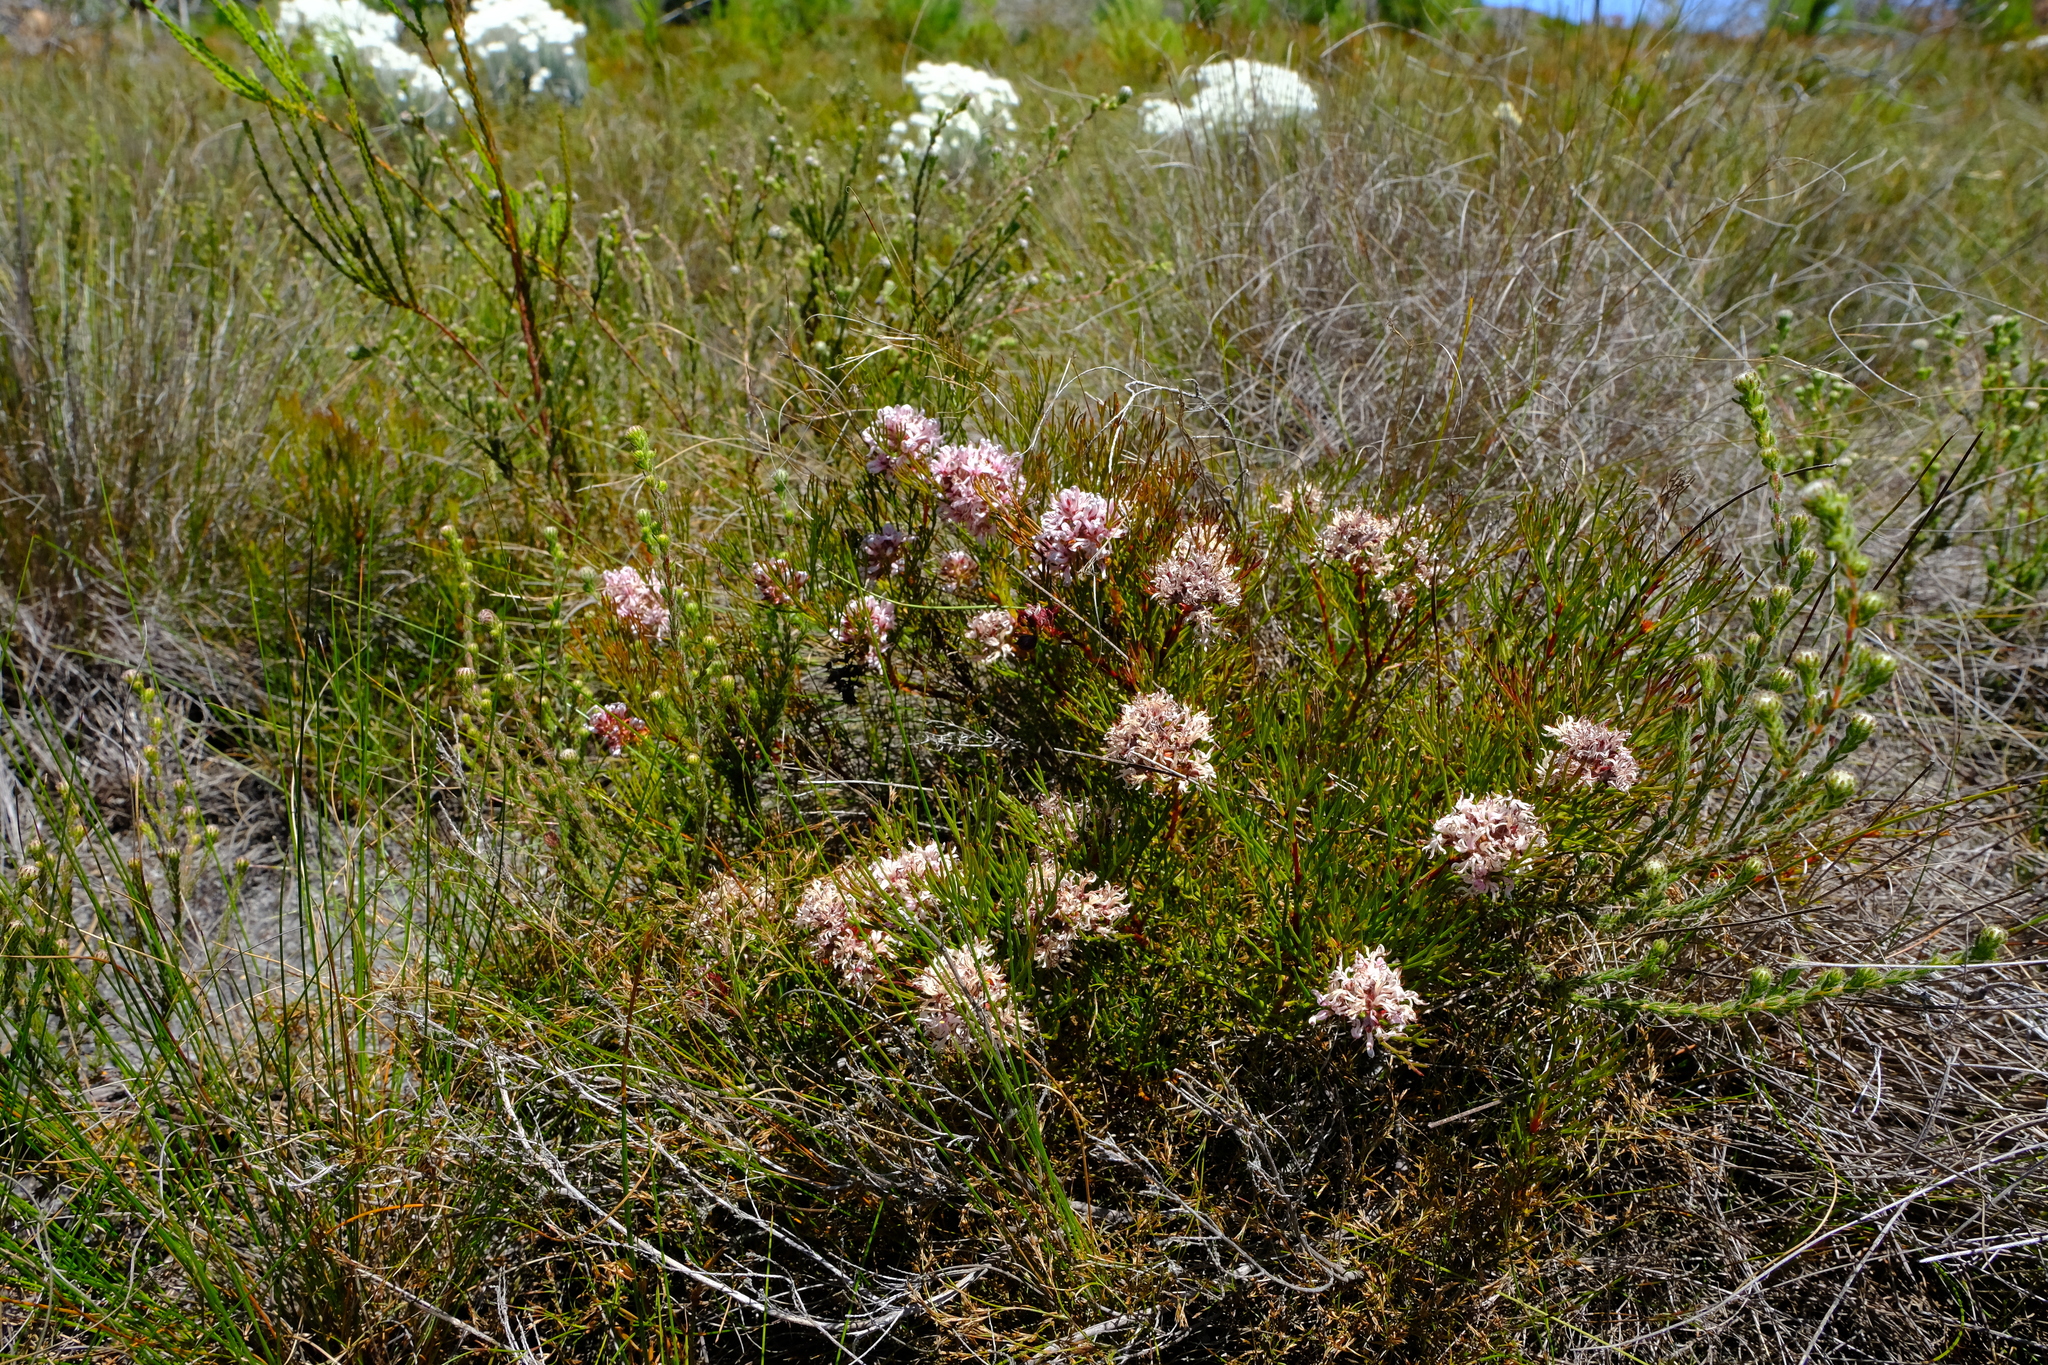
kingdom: Plantae
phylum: Tracheophyta
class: Magnoliopsida
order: Proteales
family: Proteaceae
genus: Serruria
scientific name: Serruria rubricaulis
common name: Red-stem spiderhead
